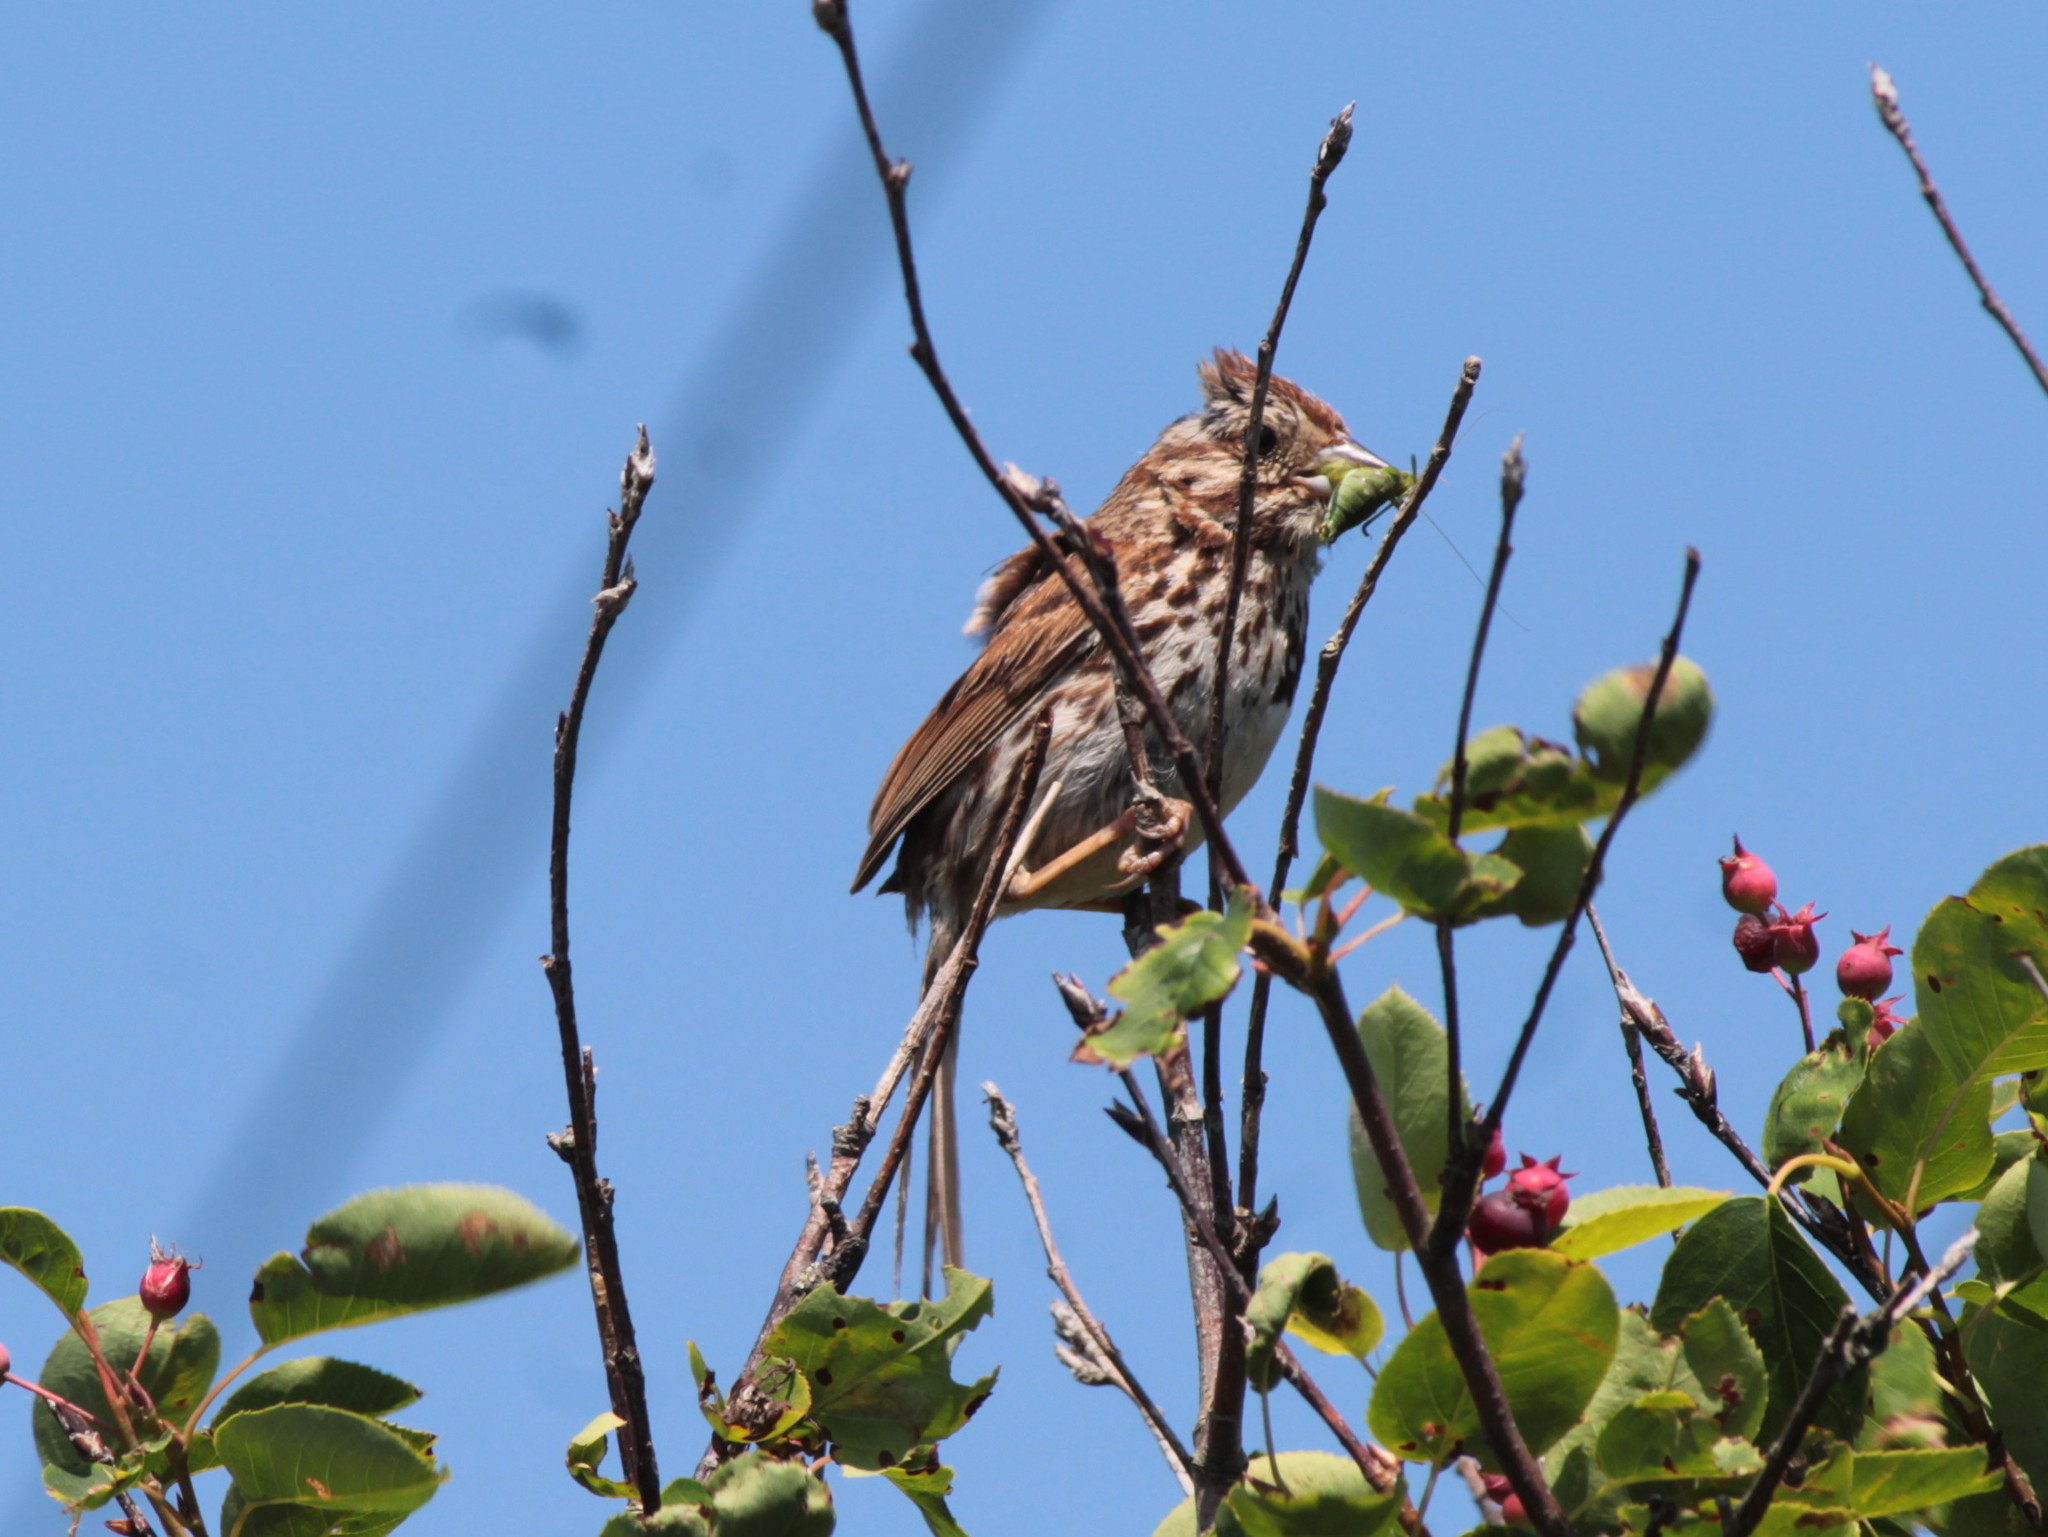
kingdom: Animalia
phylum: Chordata
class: Aves
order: Passeriformes
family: Passerellidae
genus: Melospiza
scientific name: Melospiza melodia
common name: Song sparrow
